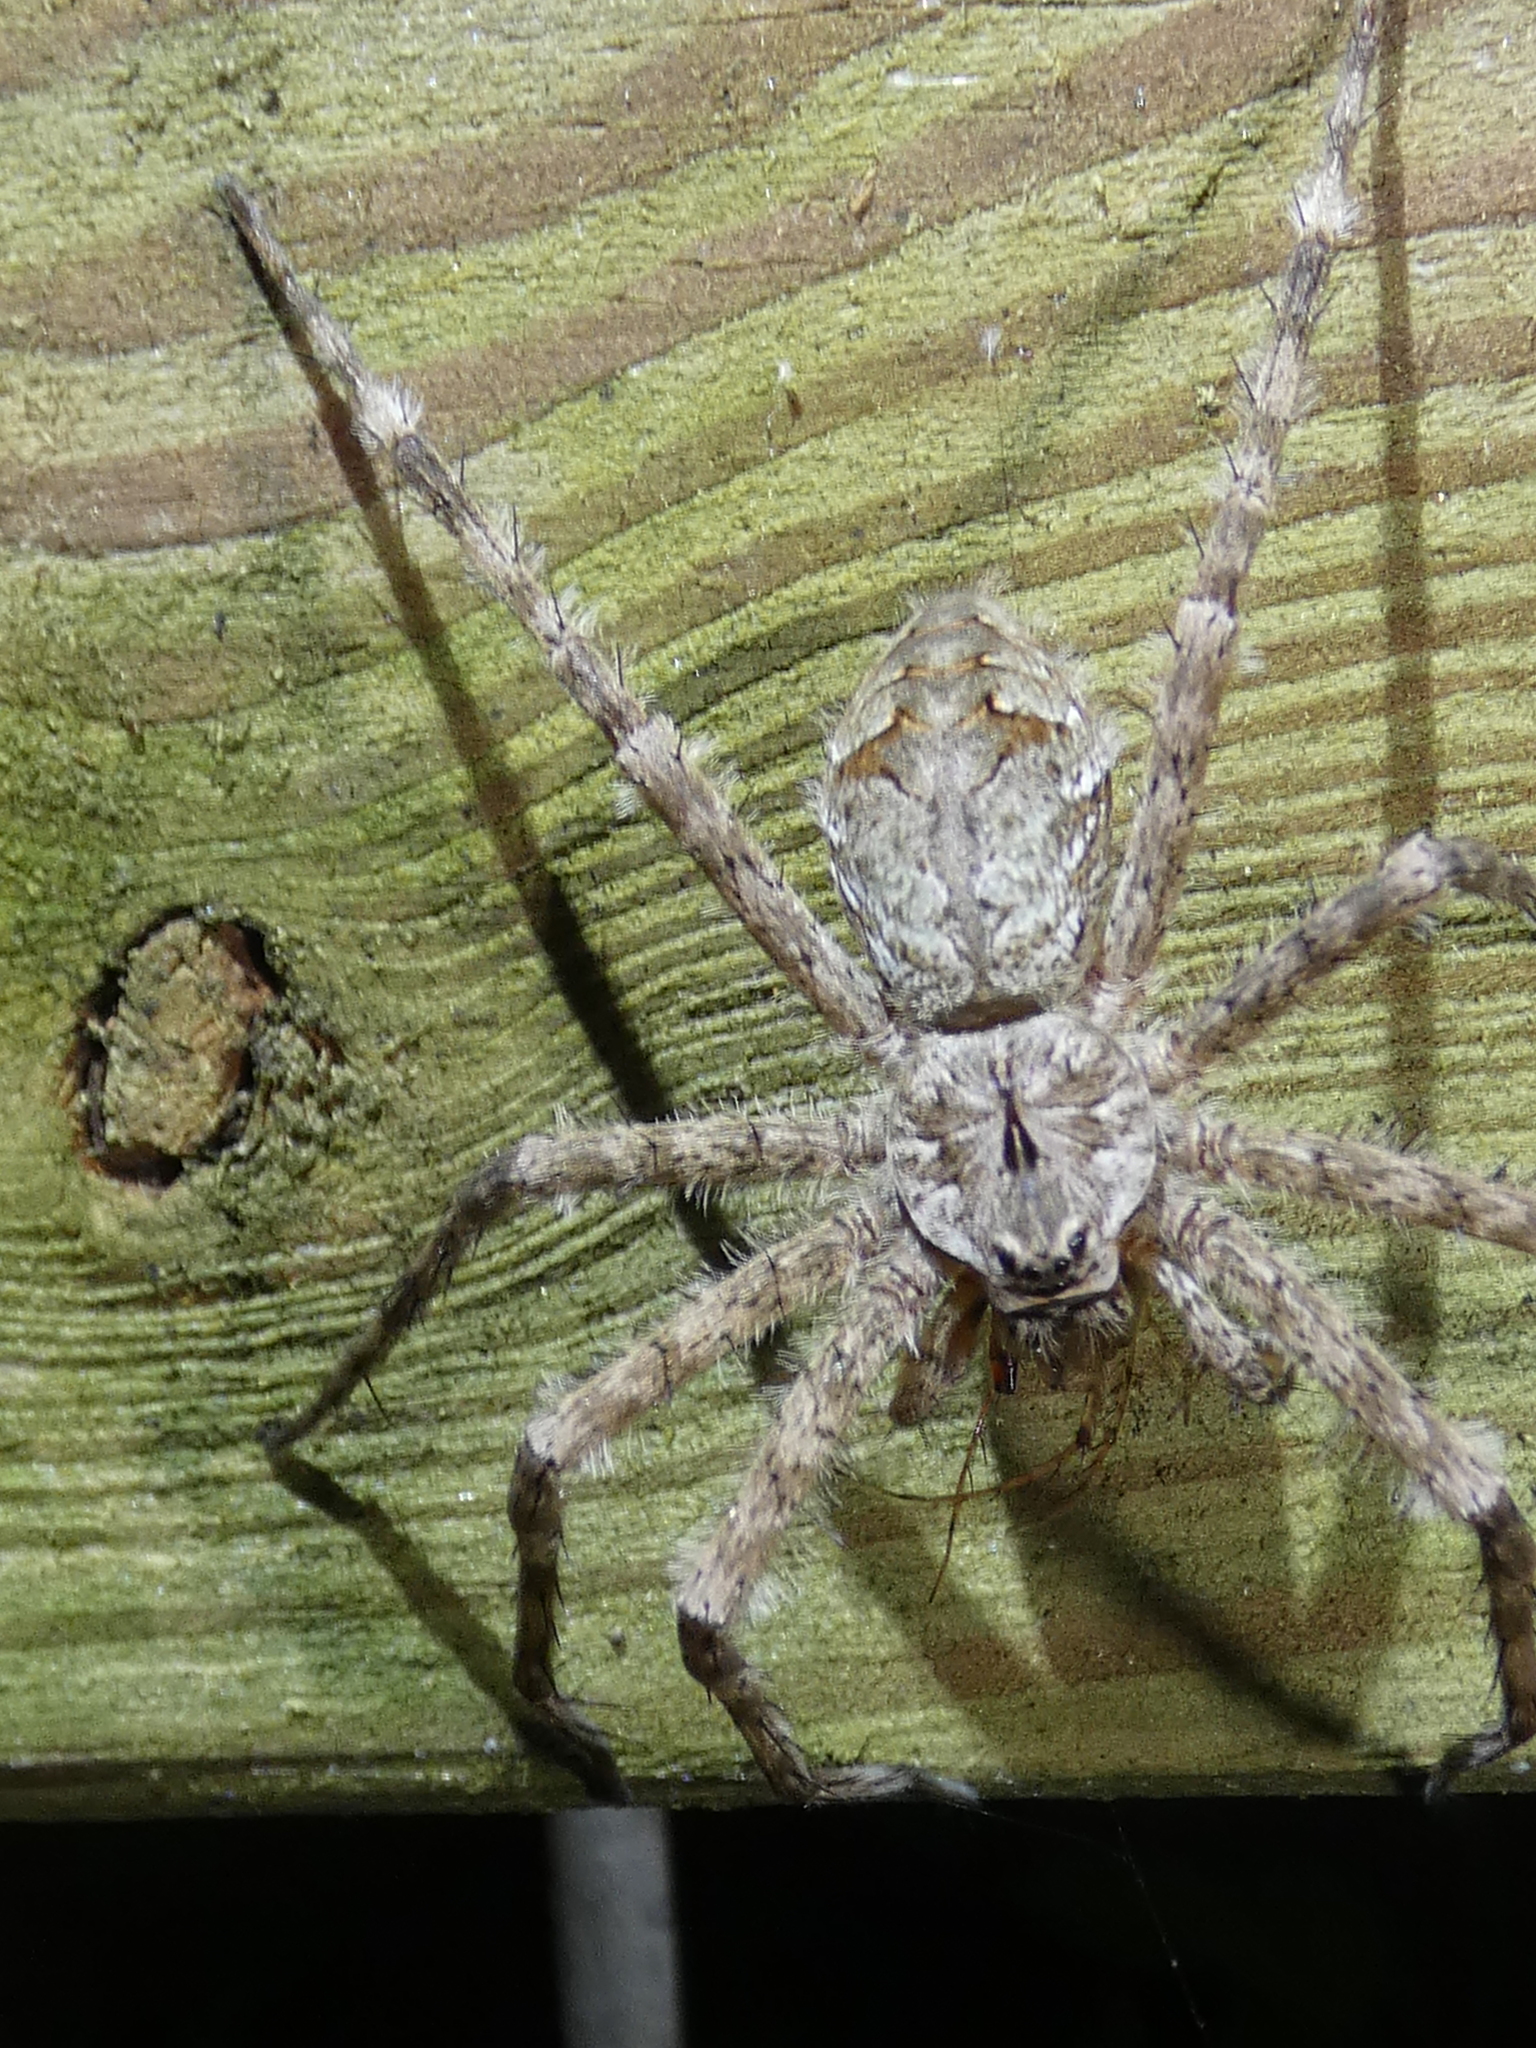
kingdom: Animalia
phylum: Arthropoda
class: Arachnida
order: Araneae
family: Pisauridae
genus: Dolomedes
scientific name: Dolomedes albineus
